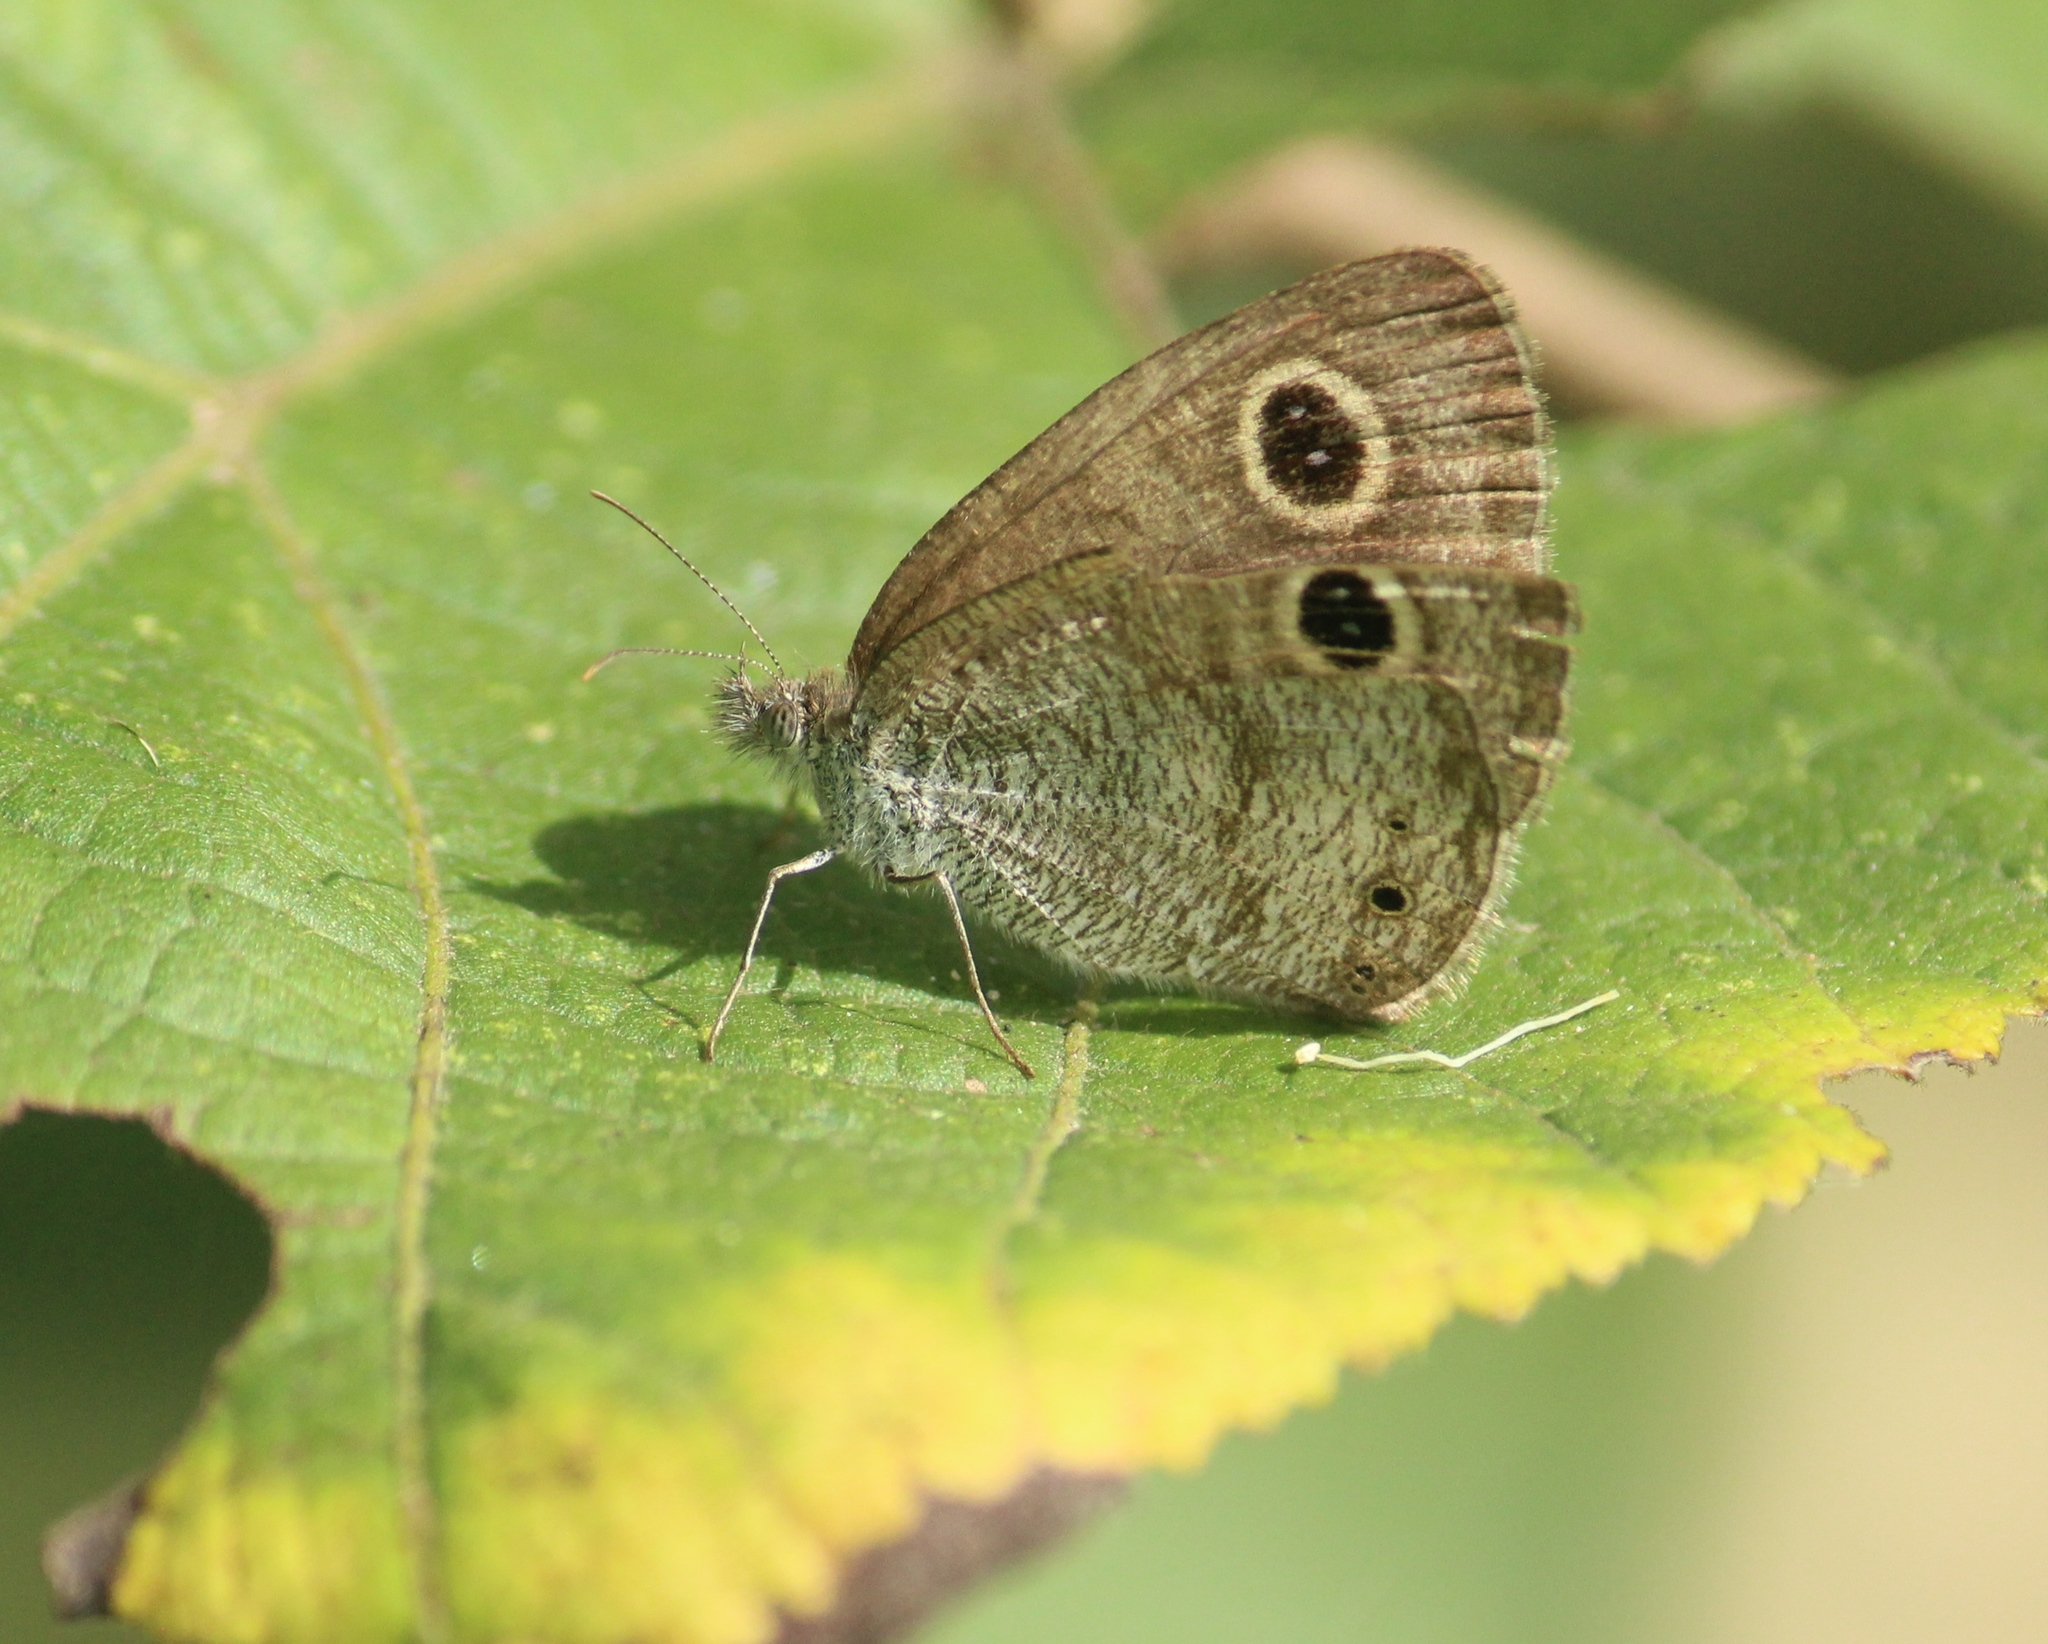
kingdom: Animalia
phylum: Arthropoda
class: Insecta
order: Lepidoptera
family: Nymphalidae
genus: Ypthima
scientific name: Ypthima huebneri
